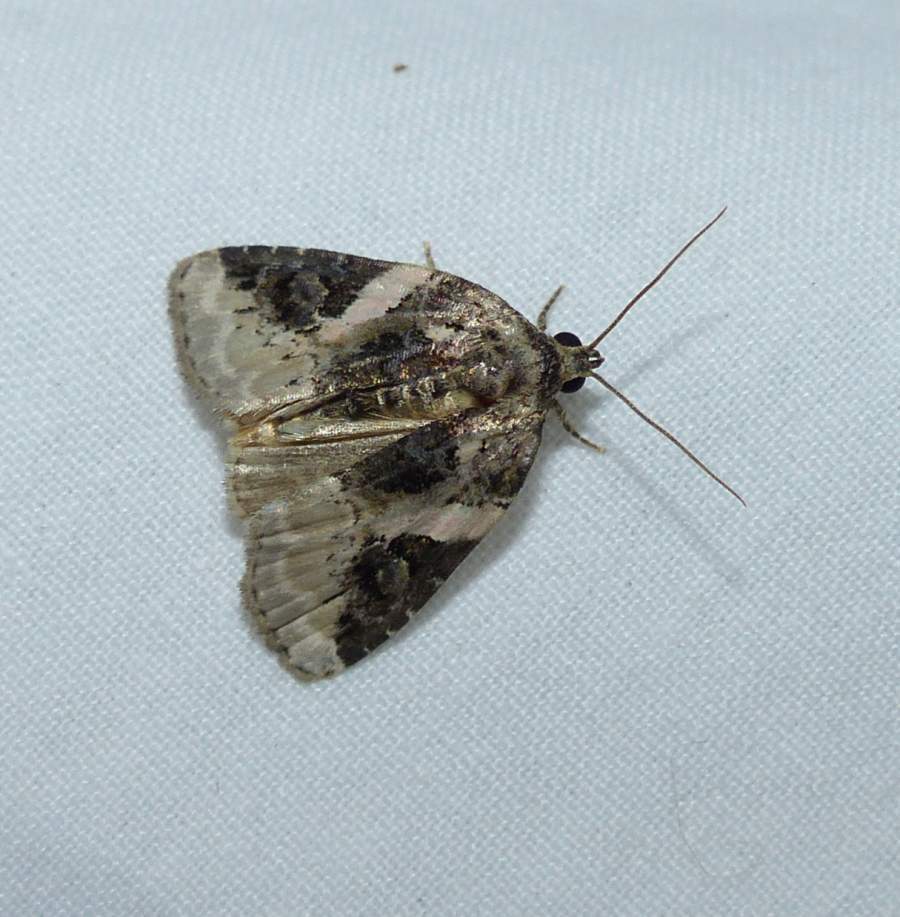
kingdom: Animalia
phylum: Arthropoda
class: Insecta
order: Lepidoptera
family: Noctuidae
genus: Pseudeustrotia
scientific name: Pseudeustrotia carneola
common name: Pink-barred lithacodia moth
